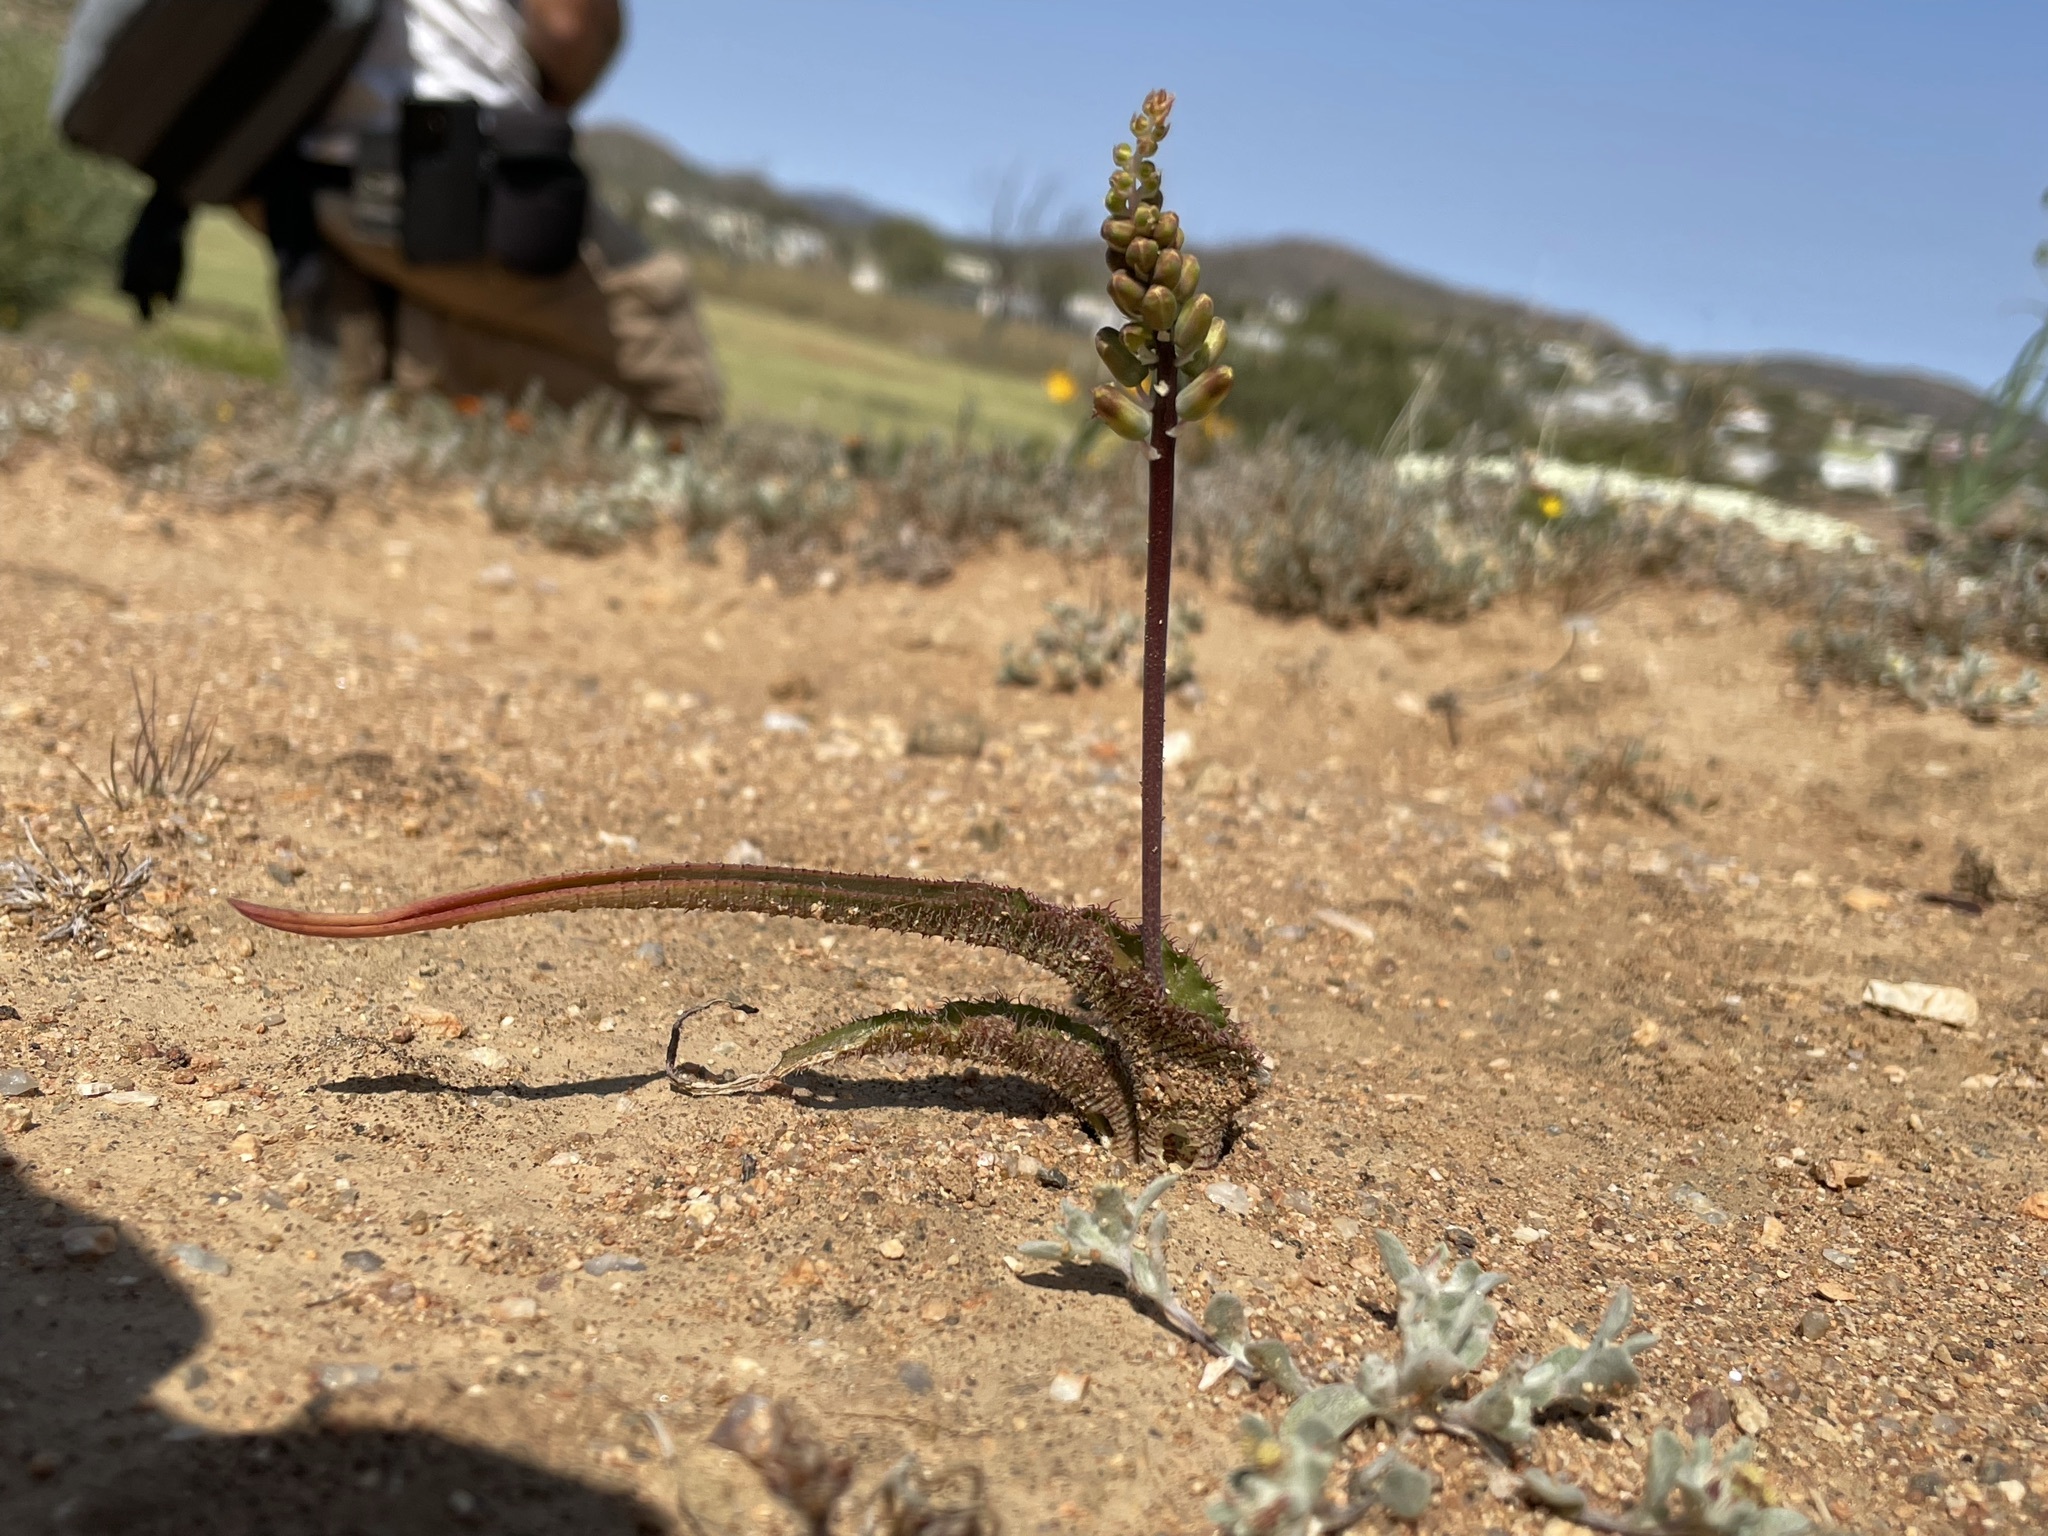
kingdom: Plantae
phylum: Tracheophyta
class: Liliopsida
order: Asparagales
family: Asparagaceae
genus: Lachenalia
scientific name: Lachenalia hirta
